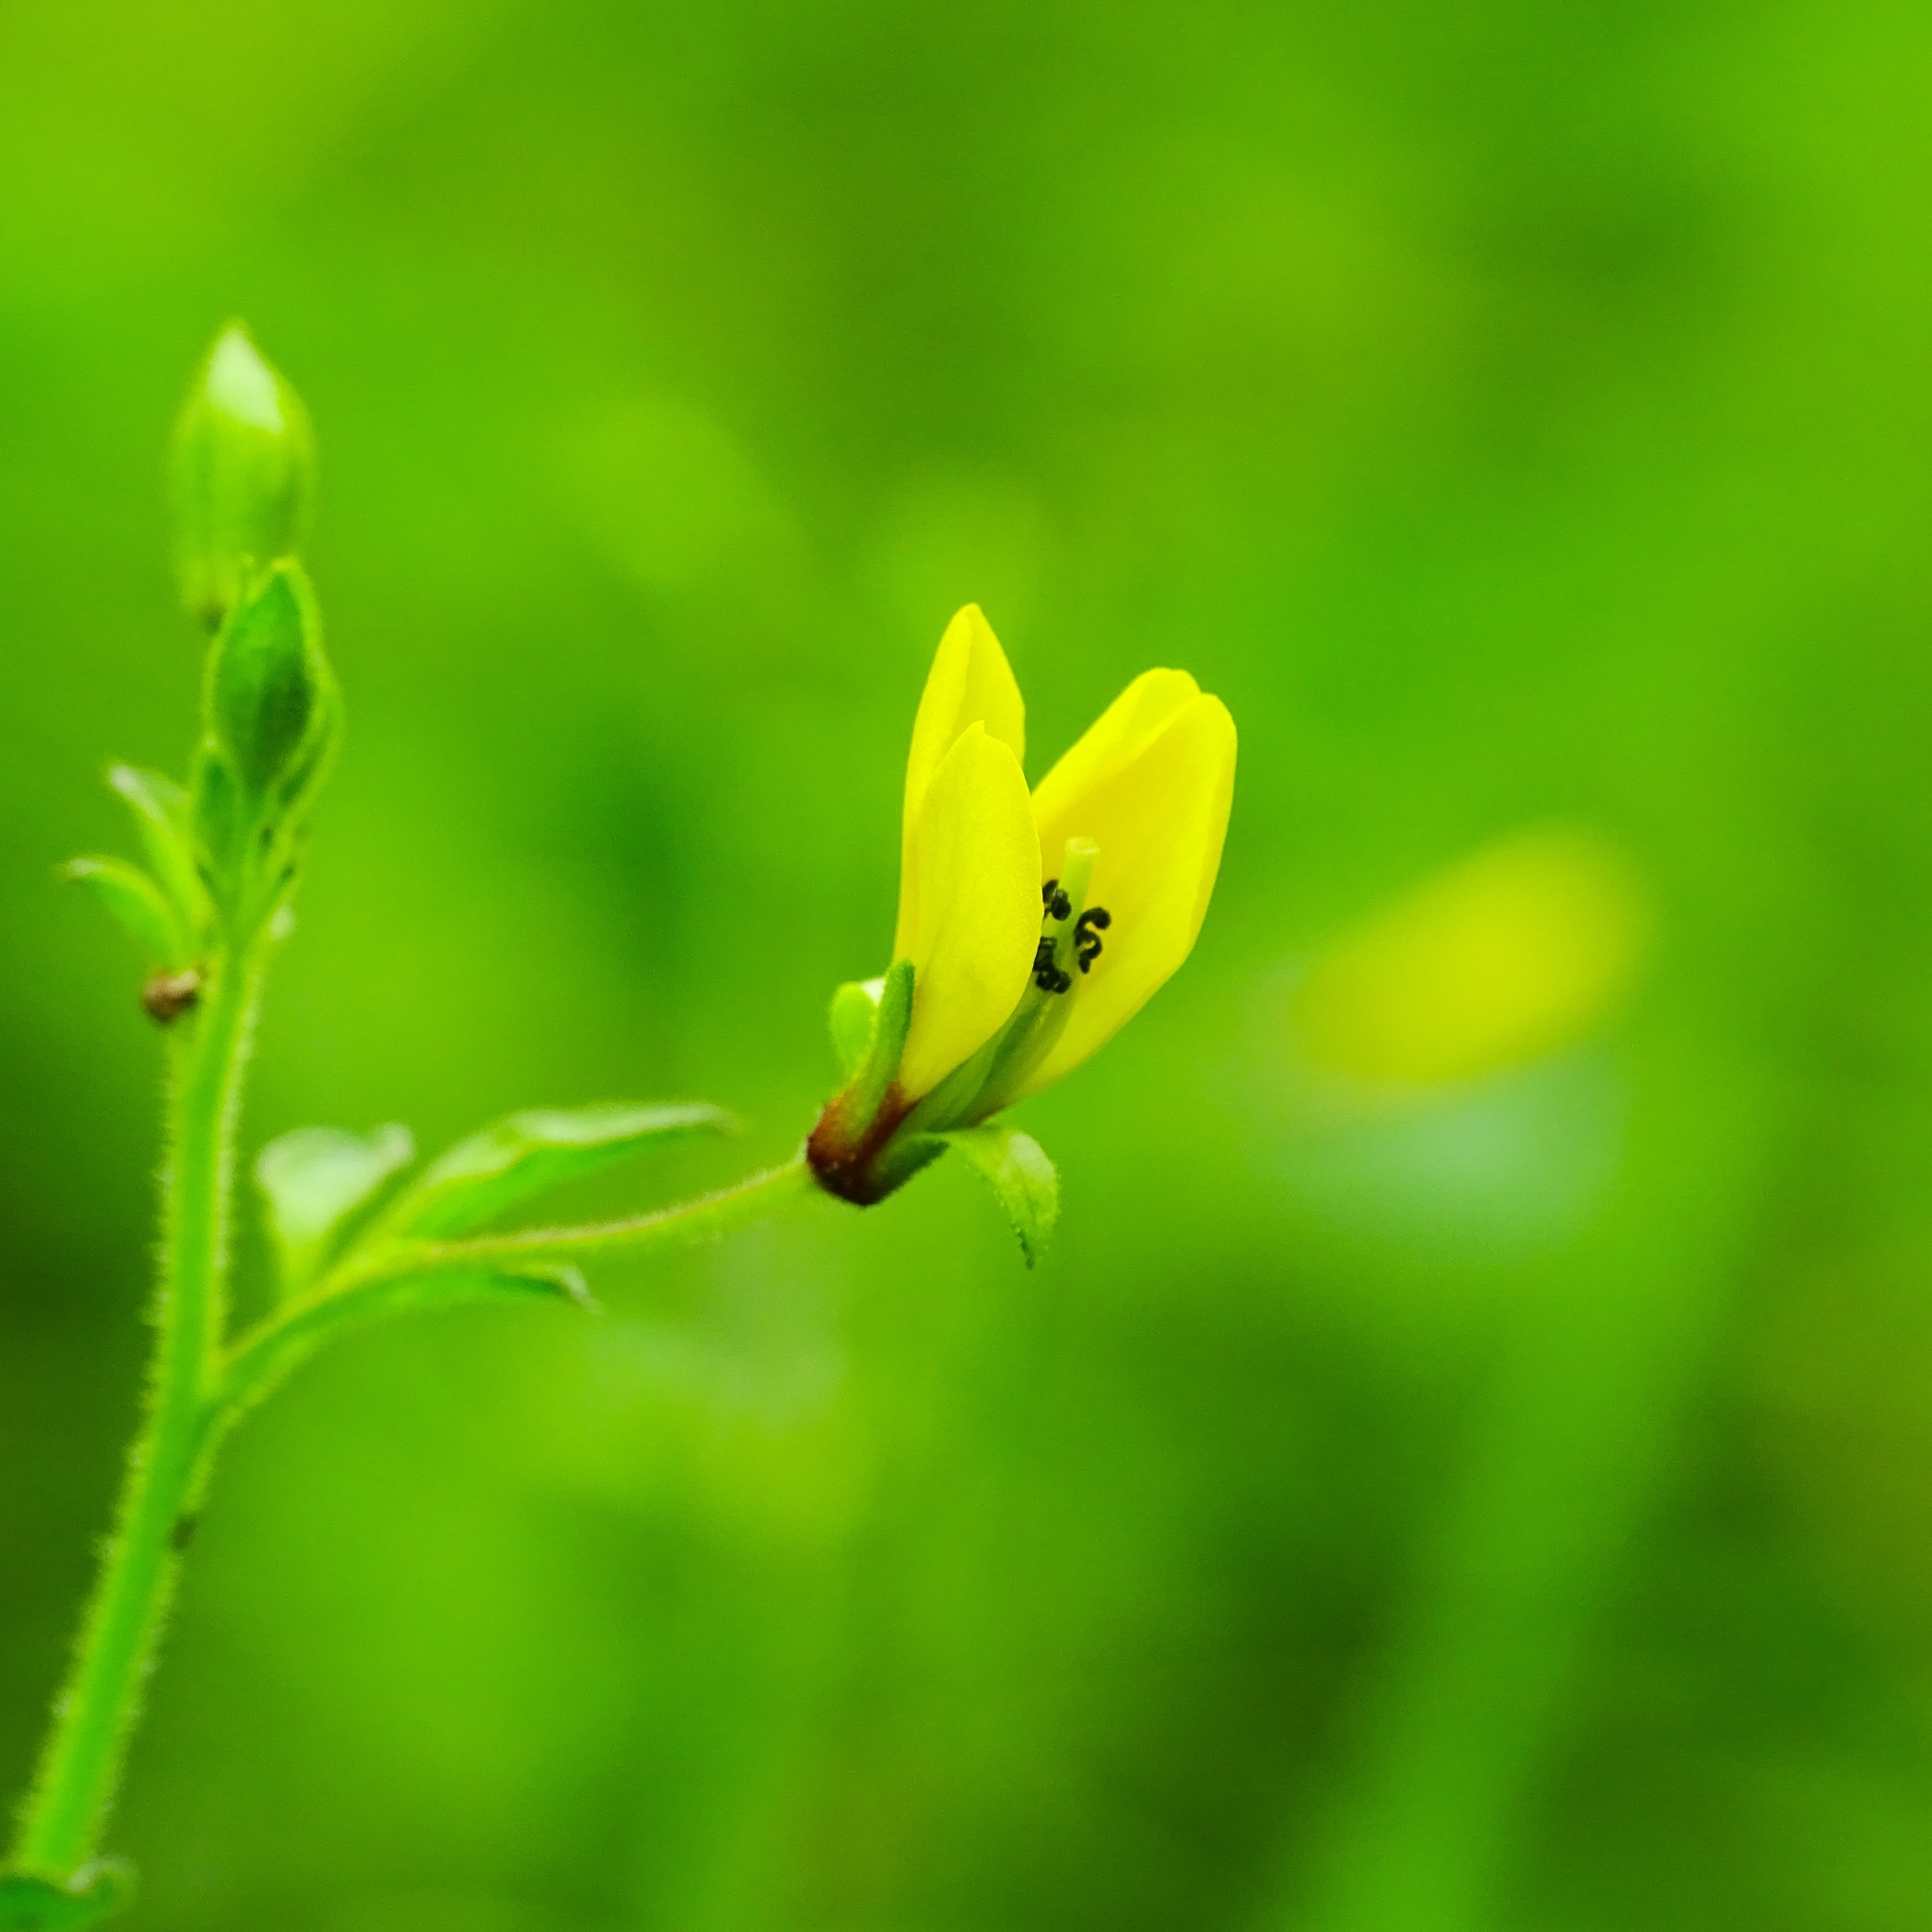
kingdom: Plantae
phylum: Tracheophyta
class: Magnoliopsida
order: Brassicales
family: Cleomaceae
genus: Arivela
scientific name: Arivela viscosa
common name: Asian spiderflower
